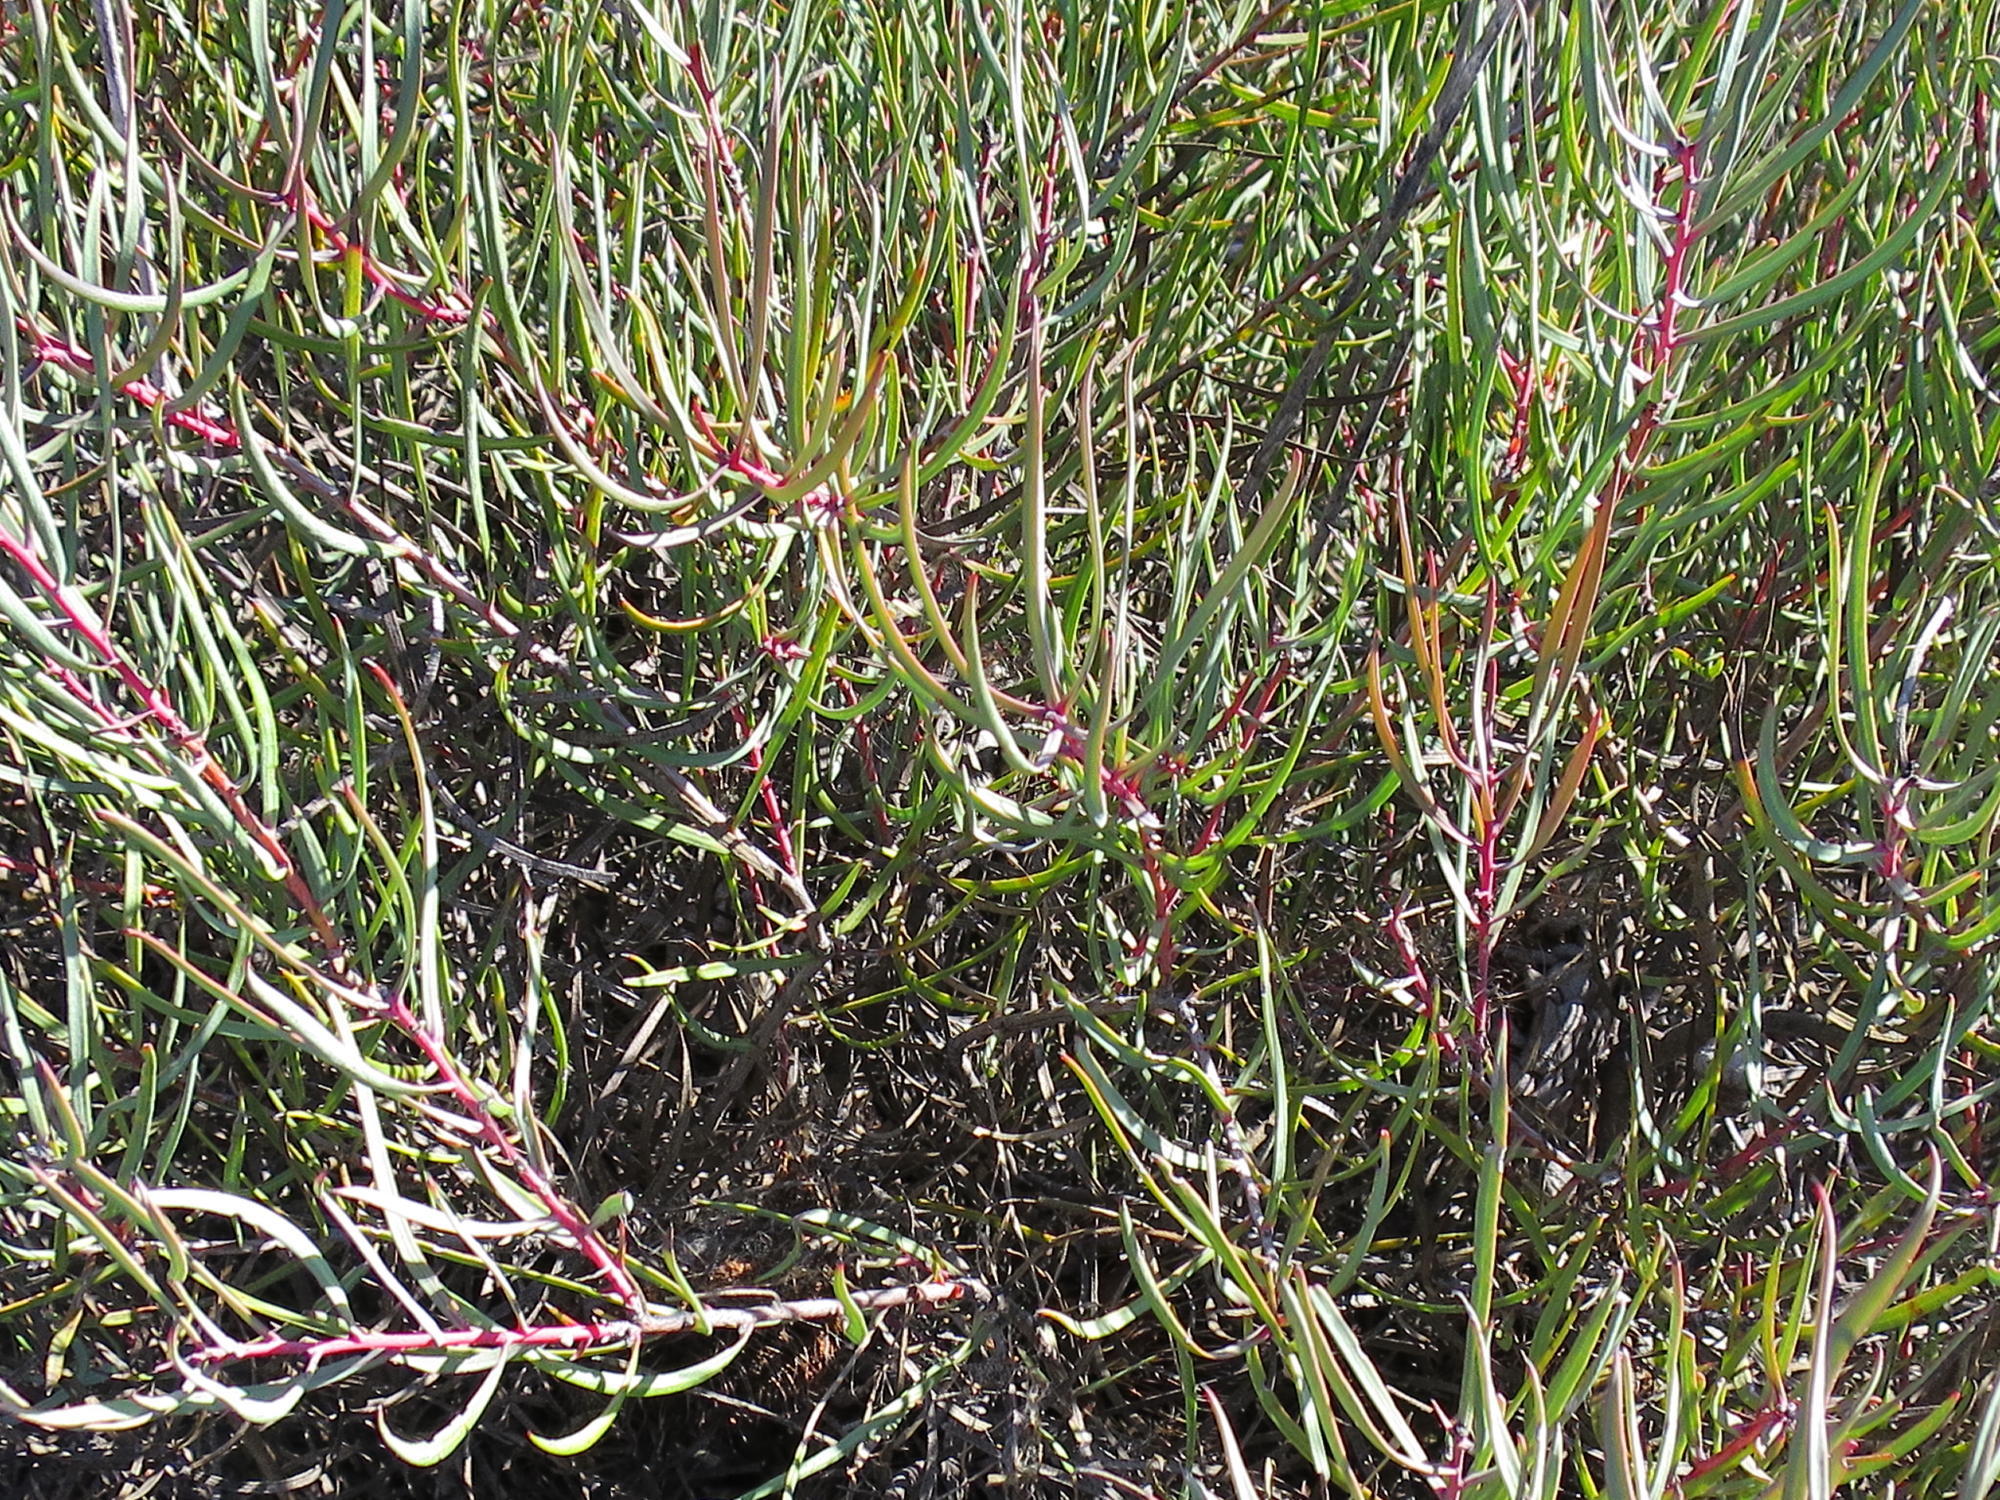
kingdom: Plantae
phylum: Tracheophyta
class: Magnoliopsida
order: Proteales
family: Proteaceae
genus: Protea
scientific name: Protea humiflora
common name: Patent-leaf sugarbush
